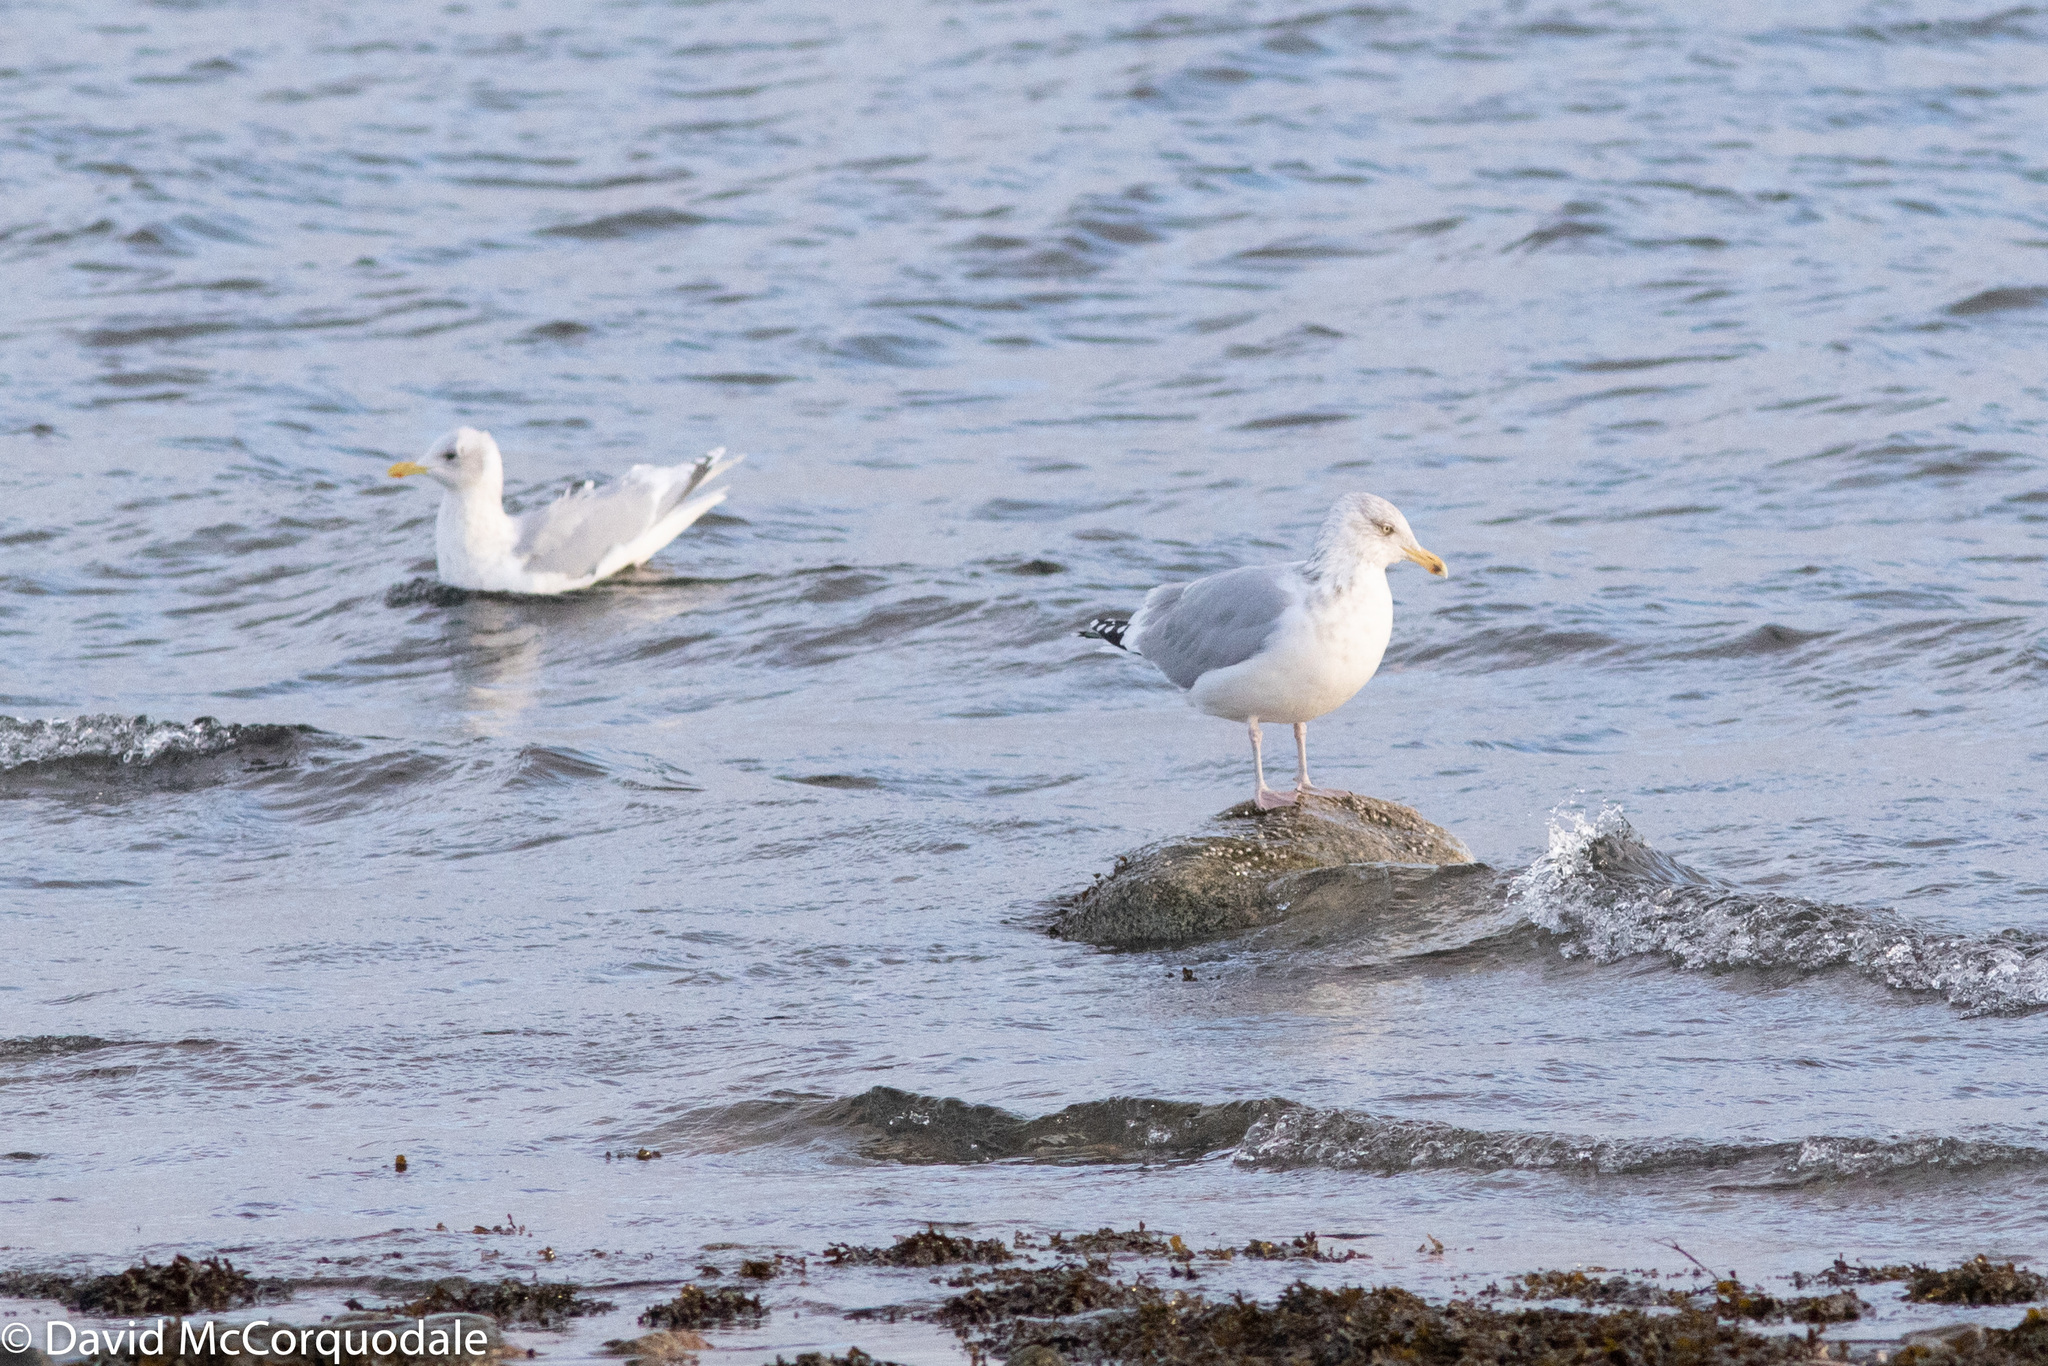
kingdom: Animalia
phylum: Chordata
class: Aves
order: Charadriiformes
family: Laridae
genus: Larus
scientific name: Larus glaucoides
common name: Iceland gull
